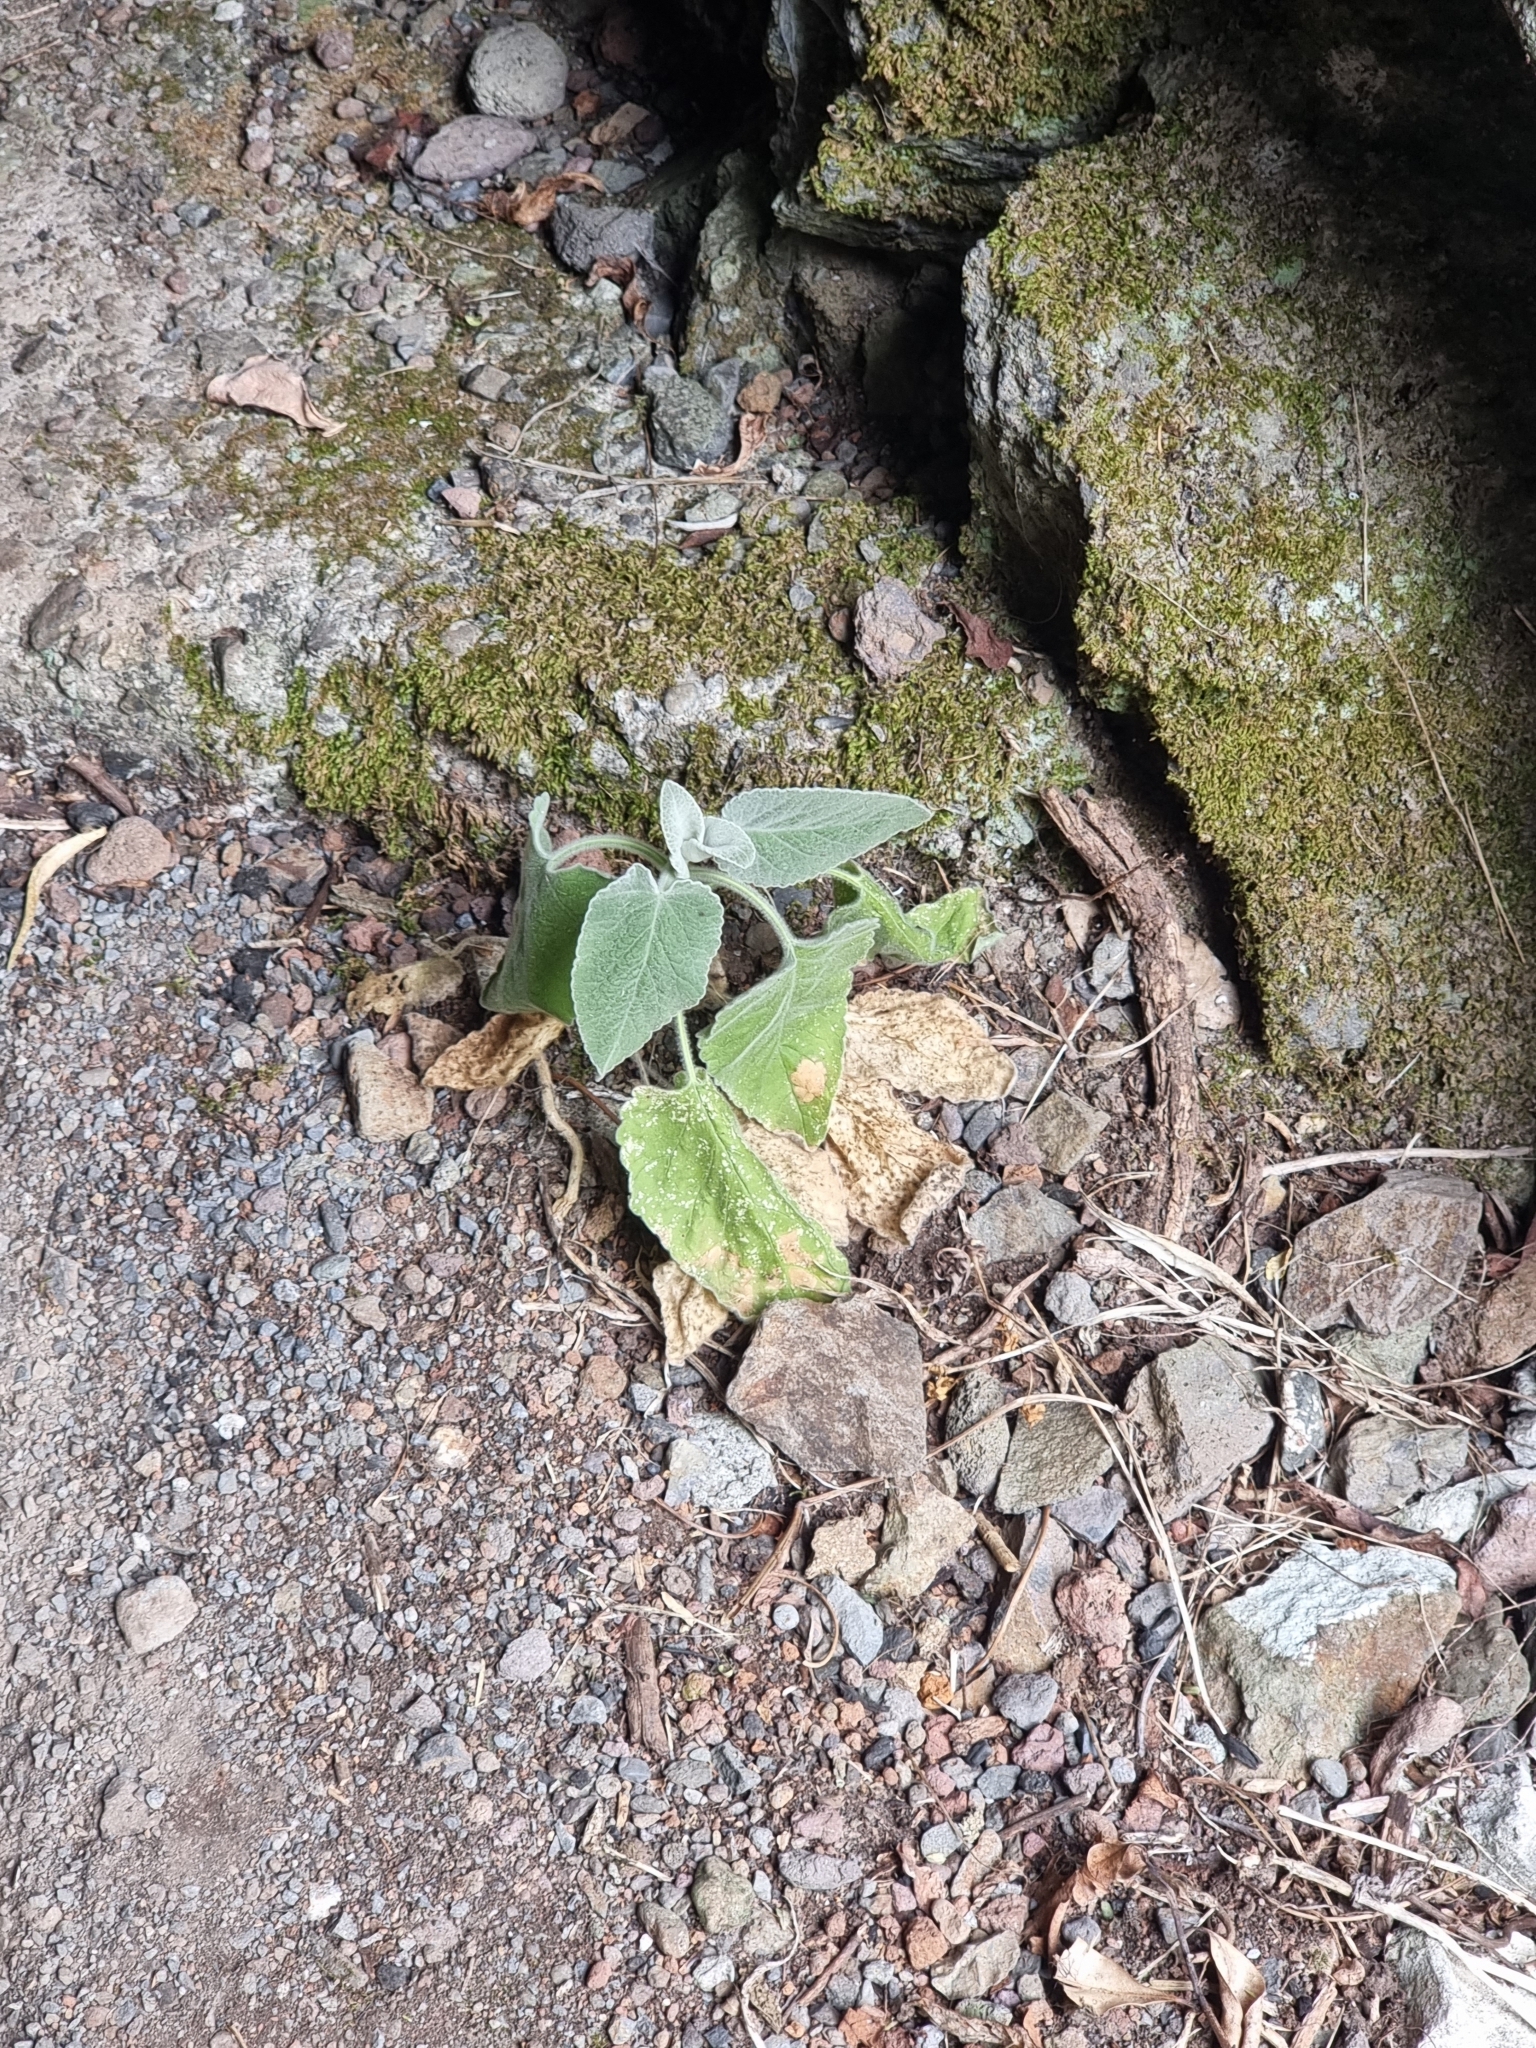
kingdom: Plantae
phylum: Tracheophyta
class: Magnoliopsida
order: Lamiales
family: Lamiaceae
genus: Sideritis
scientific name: Sideritis candicans
